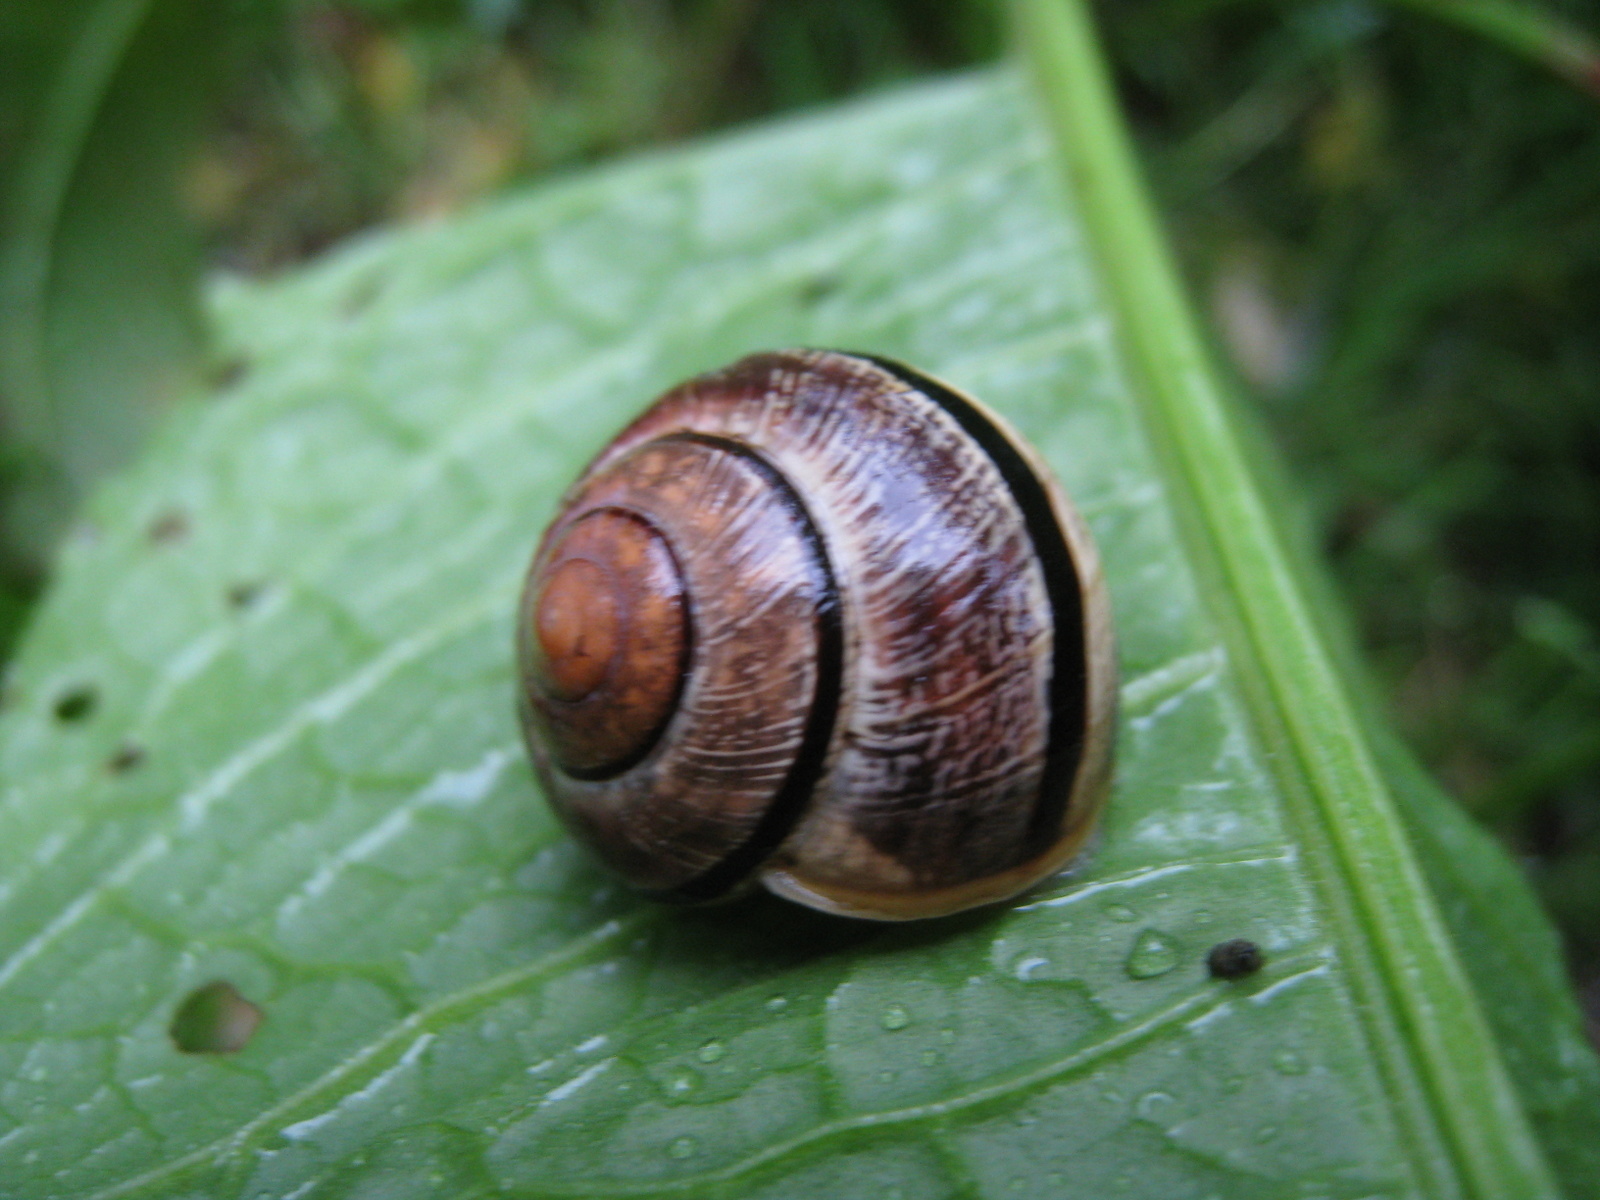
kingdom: Animalia
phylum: Mollusca
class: Gastropoda
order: Stylommatophora
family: Helicidae
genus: Cepaea
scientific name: Cepaea nemoralis
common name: Grovesnail
